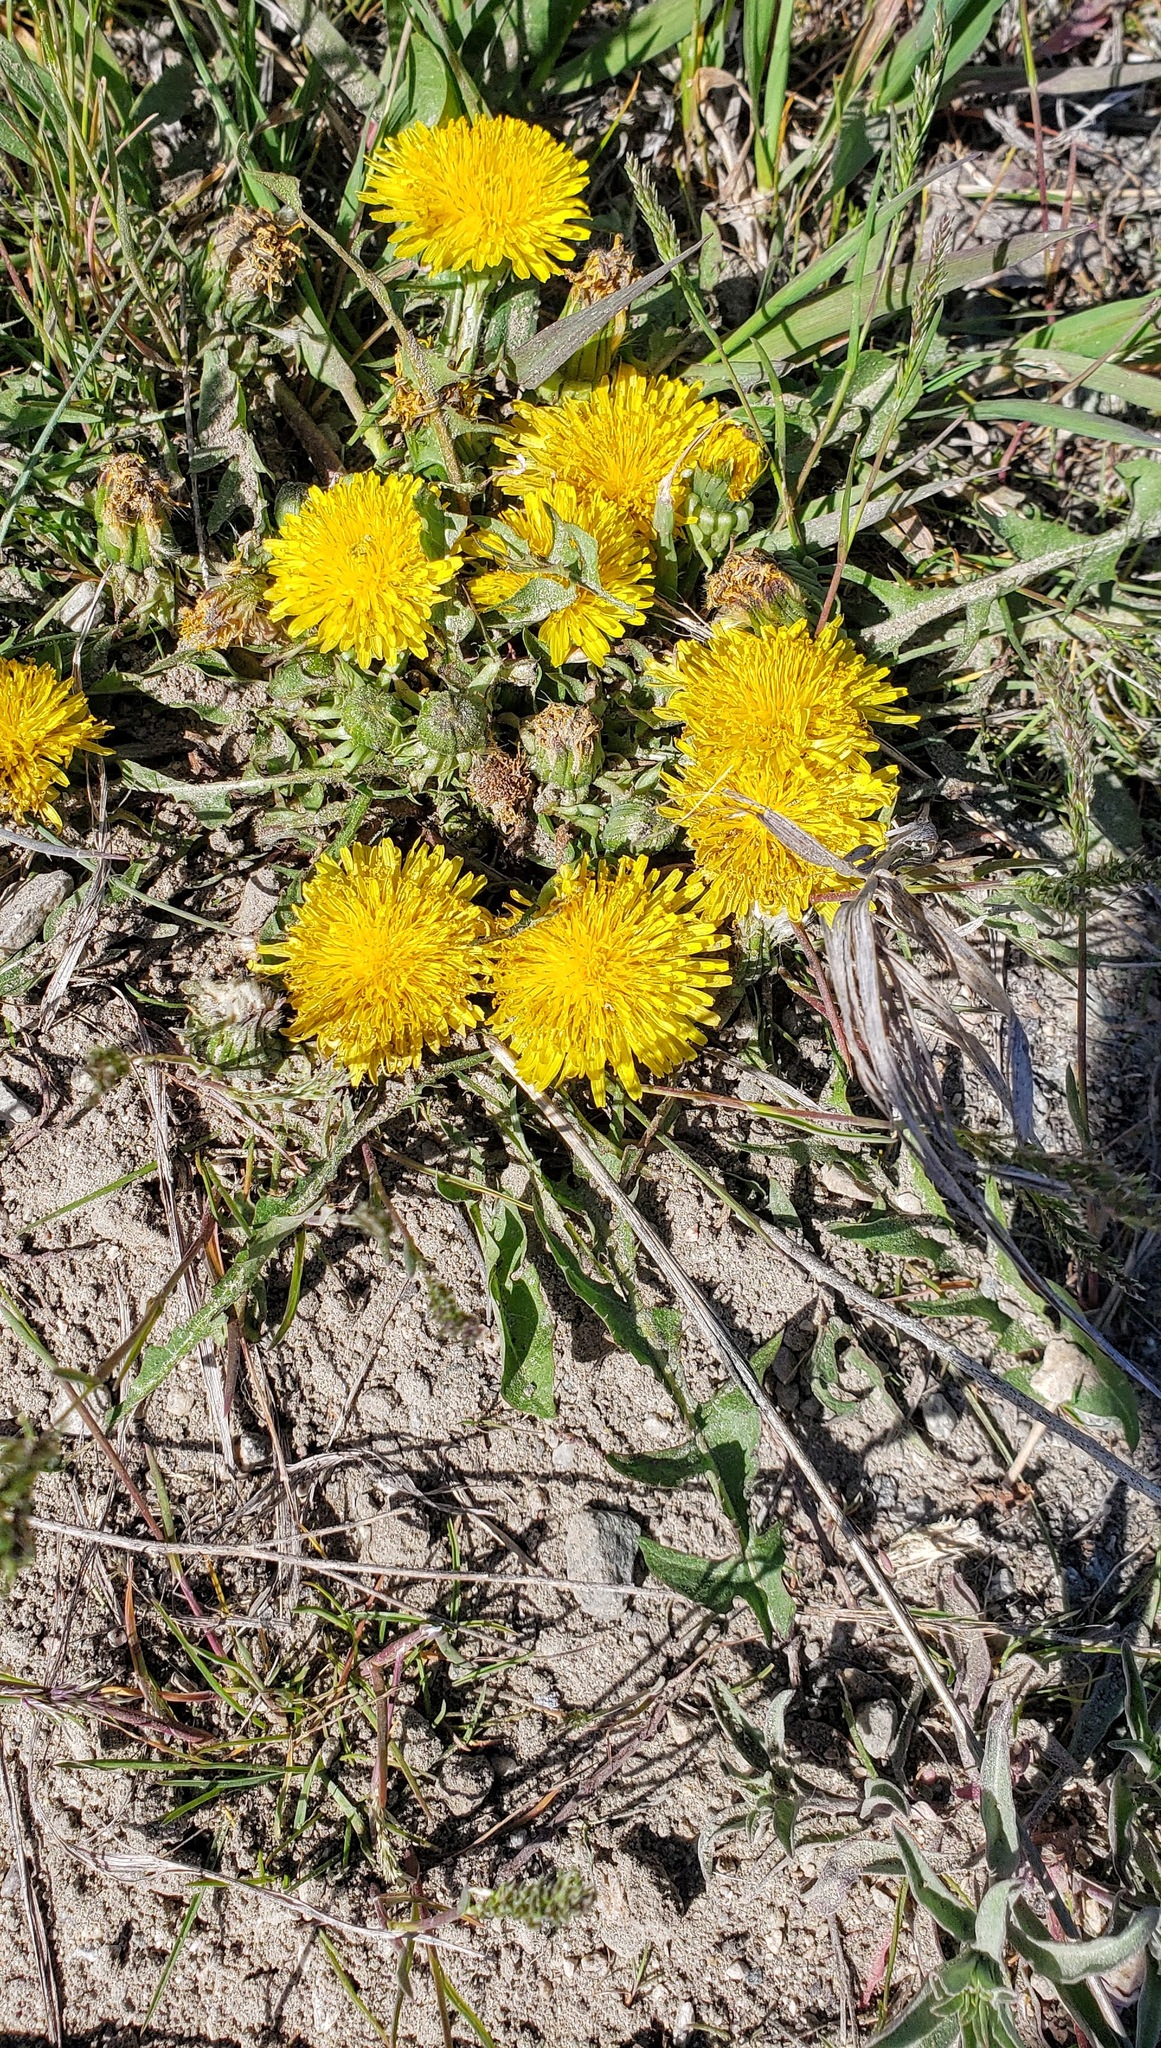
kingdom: Plantae
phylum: Tracheophyta
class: Magnoliopsida
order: Asterales
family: Asteraceae
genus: Taraxacum
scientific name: Taraxacum officinale
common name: Common dandelion
